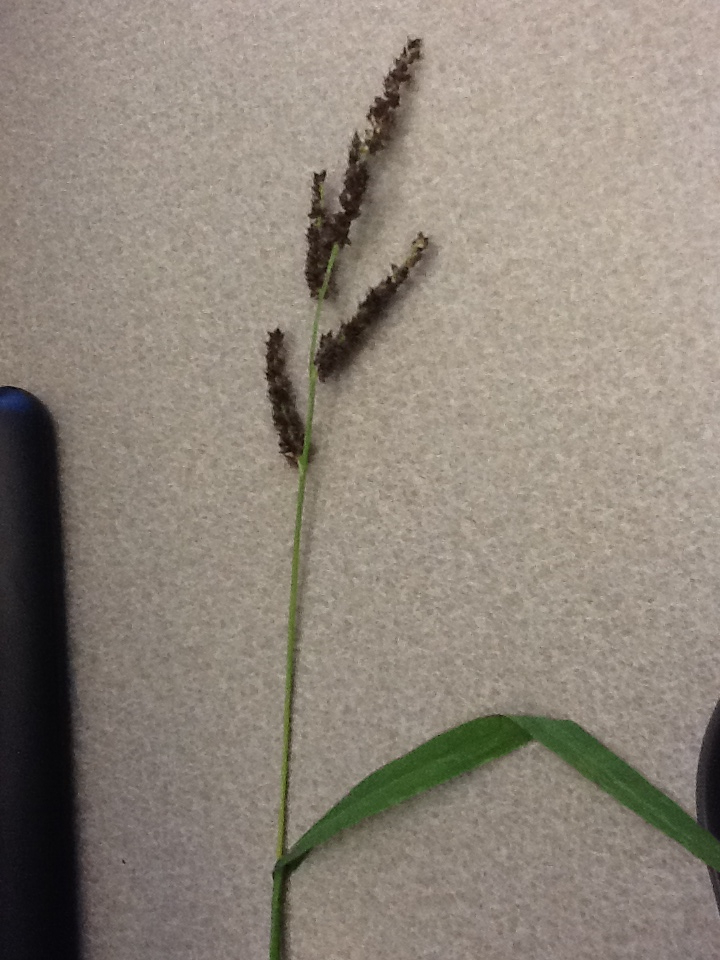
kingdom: Plantae
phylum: Tracheophyta
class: Liliopsida
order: Poales
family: Poaceae
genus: Echinochloa
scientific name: Echinochloa crus-galli
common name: Cockspur
